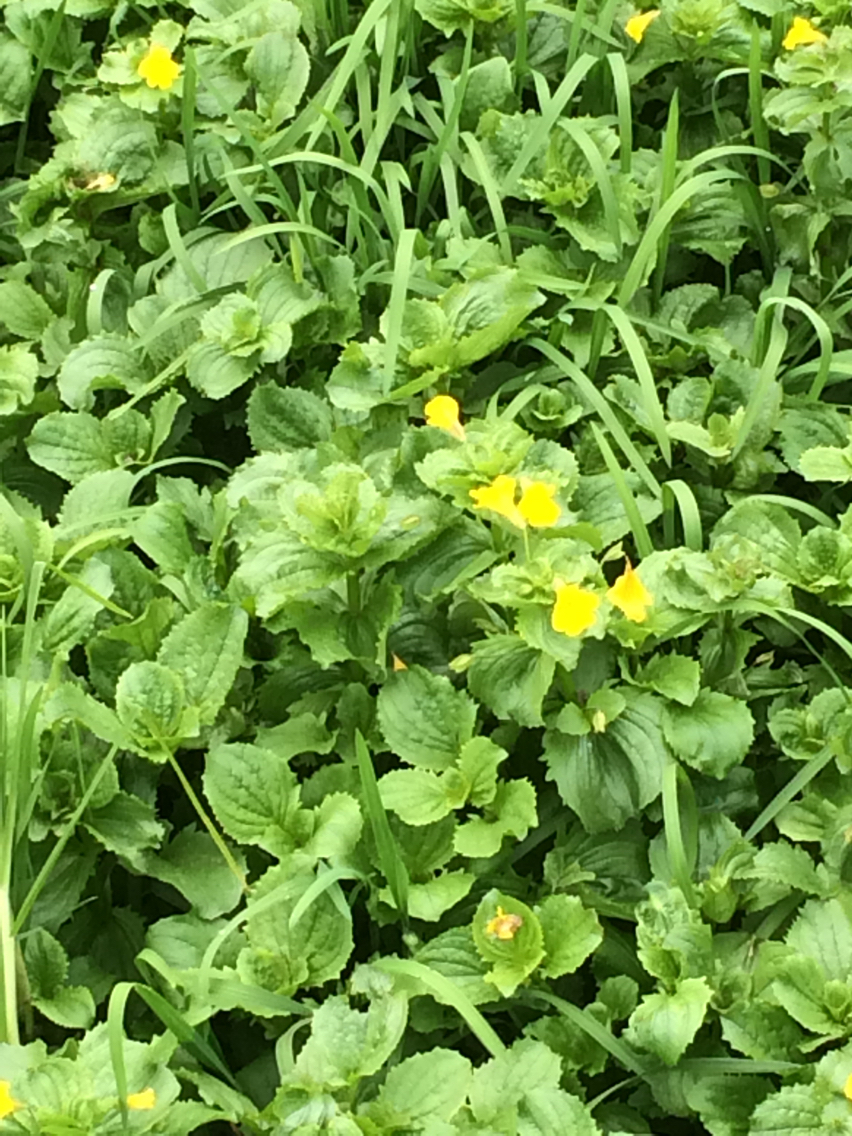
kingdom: Plantae
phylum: Tracheophyta
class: Magnoliopsida
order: Lamiales
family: Phrymaceae
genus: Erythranthe
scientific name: Erythranthe guttata
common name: Monkeyflower
